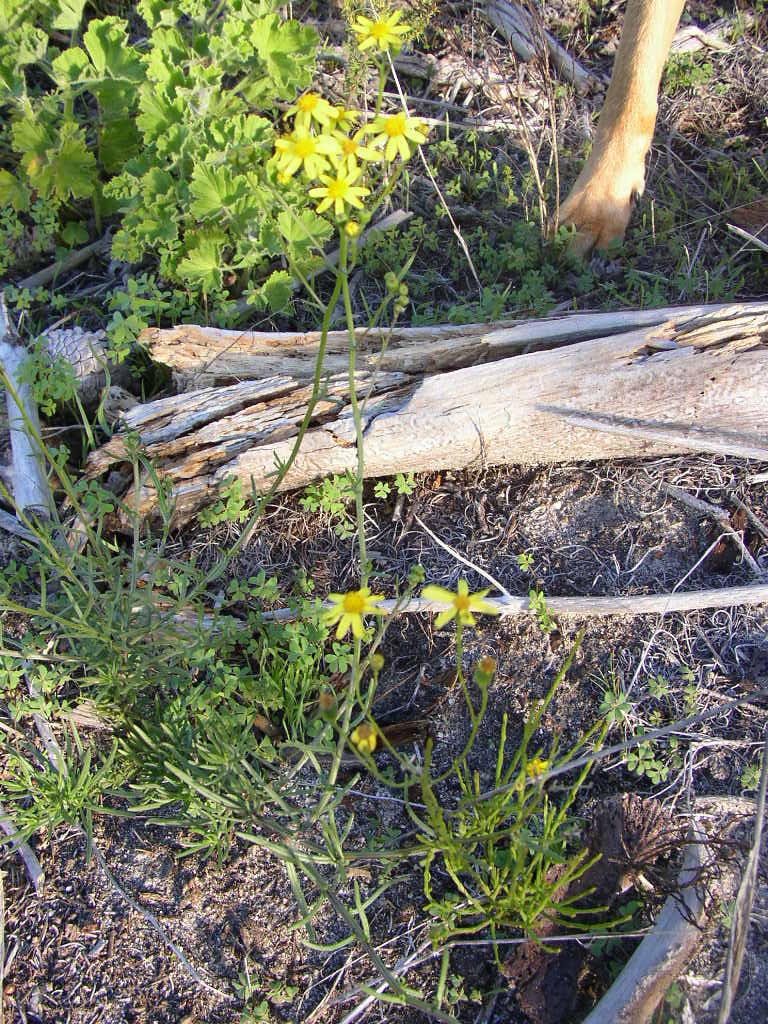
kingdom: Plantae
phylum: Tracheophyta
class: Magnoliopsida
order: Asterales
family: Asteraceae
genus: Senecio
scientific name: Senecio burchellii
